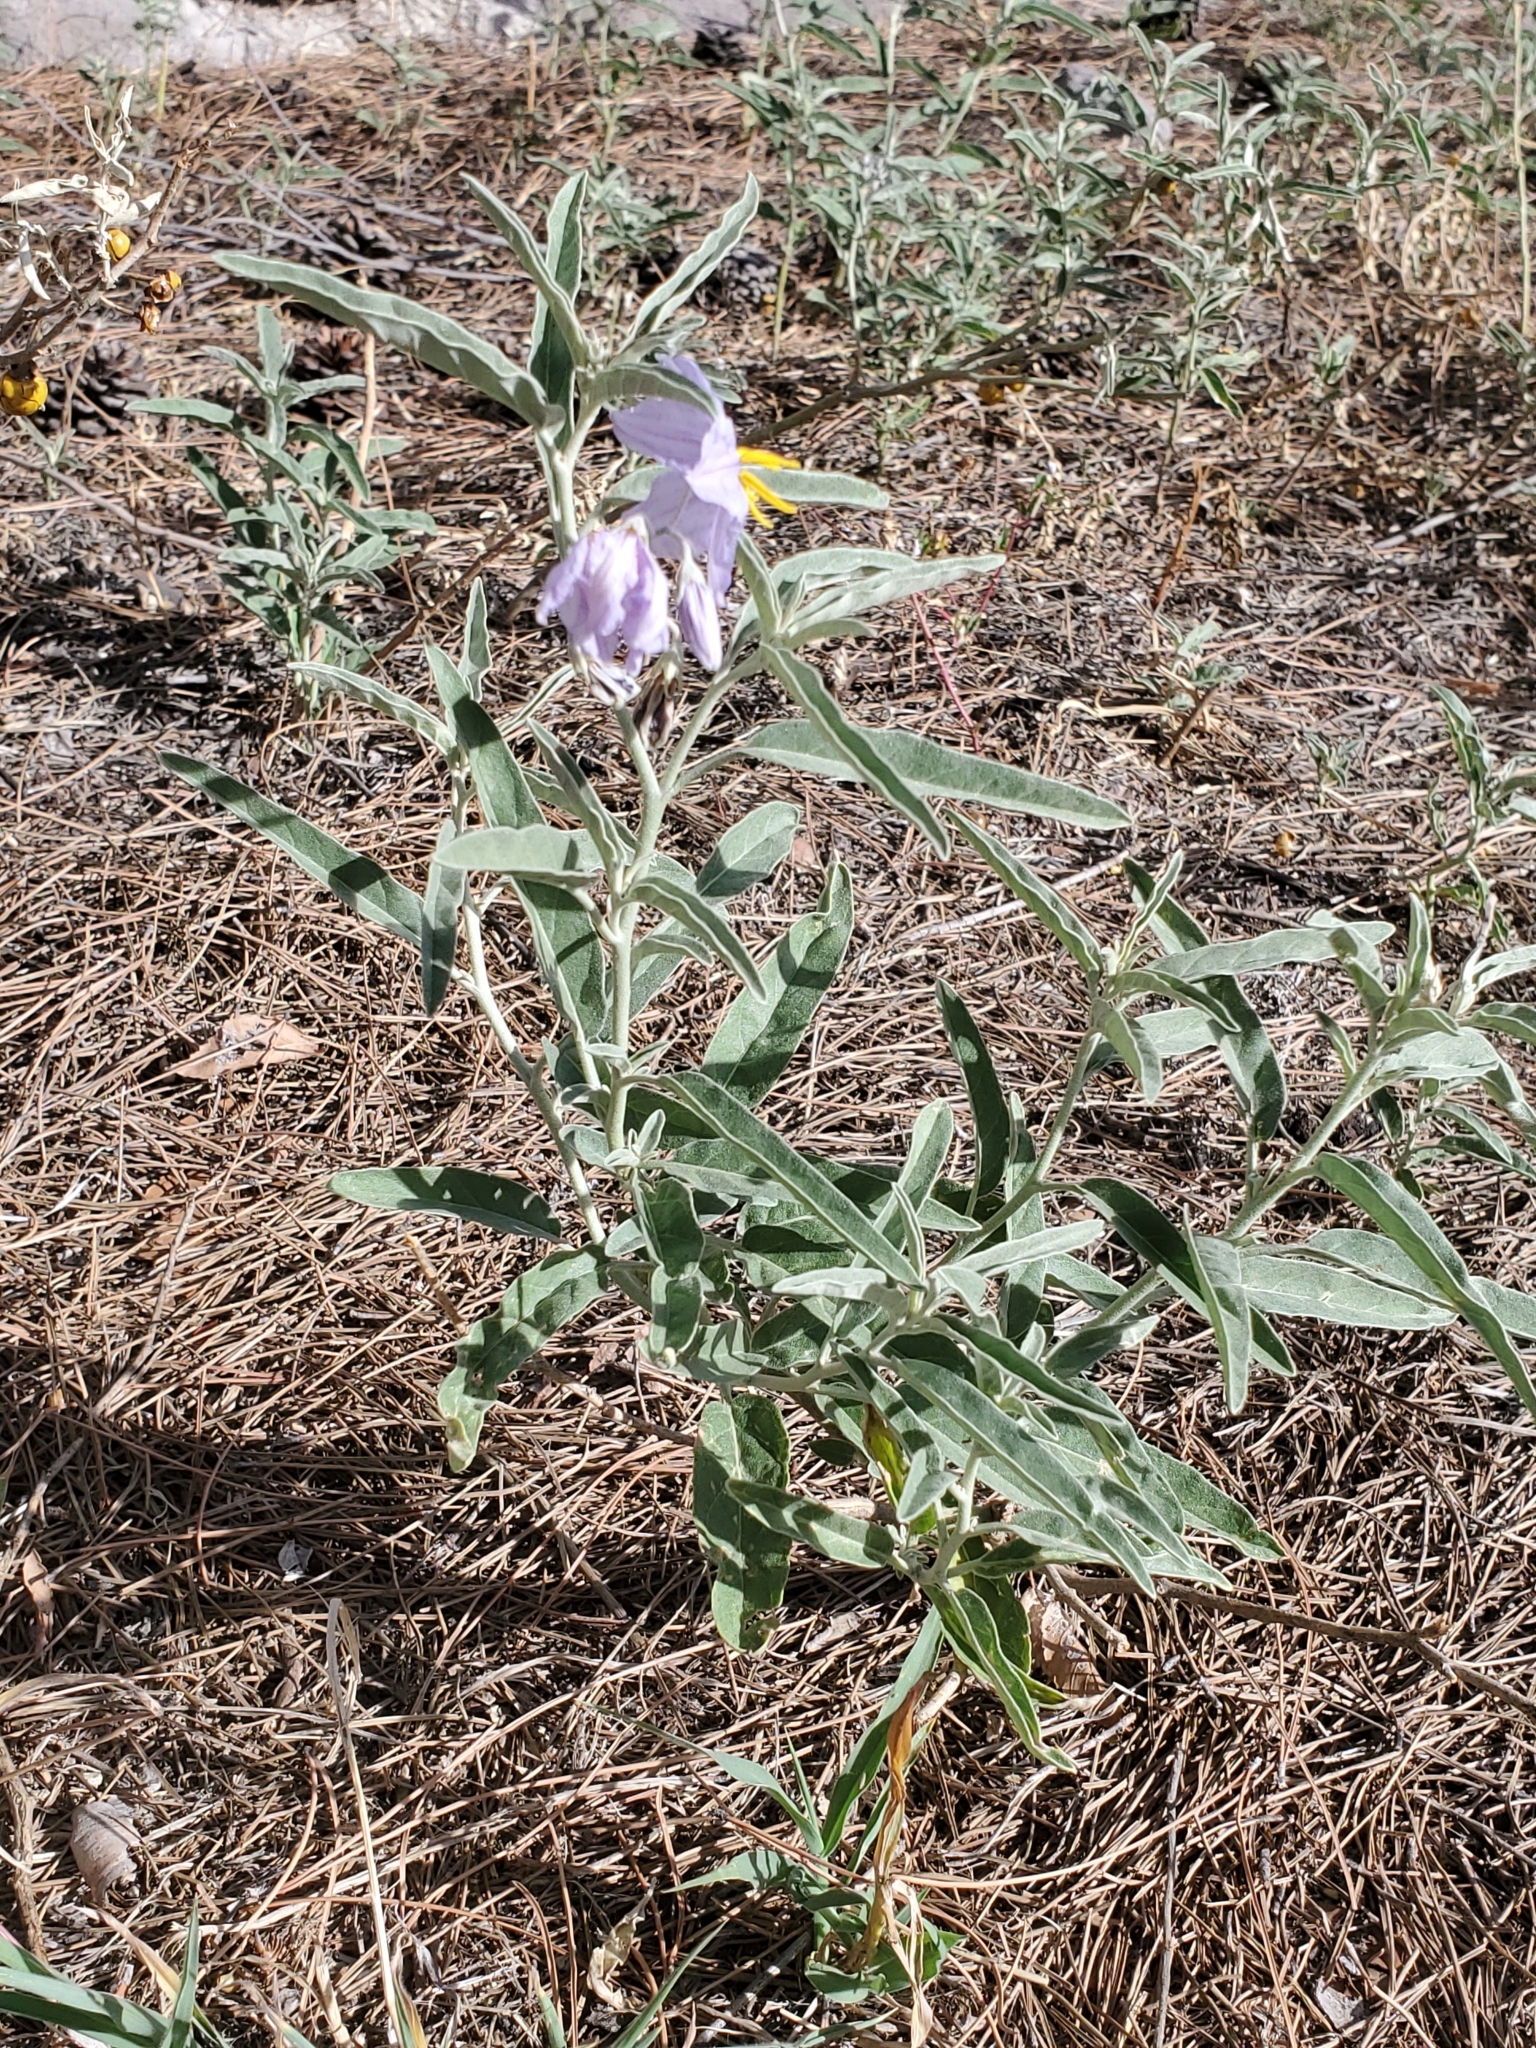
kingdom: Plantae
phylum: Tracheophyta
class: Magnoliopsida
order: Solanales
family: Solanaceae
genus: Solanum
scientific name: Solanum elaeagnifolium
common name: Silverleaf nightshade
